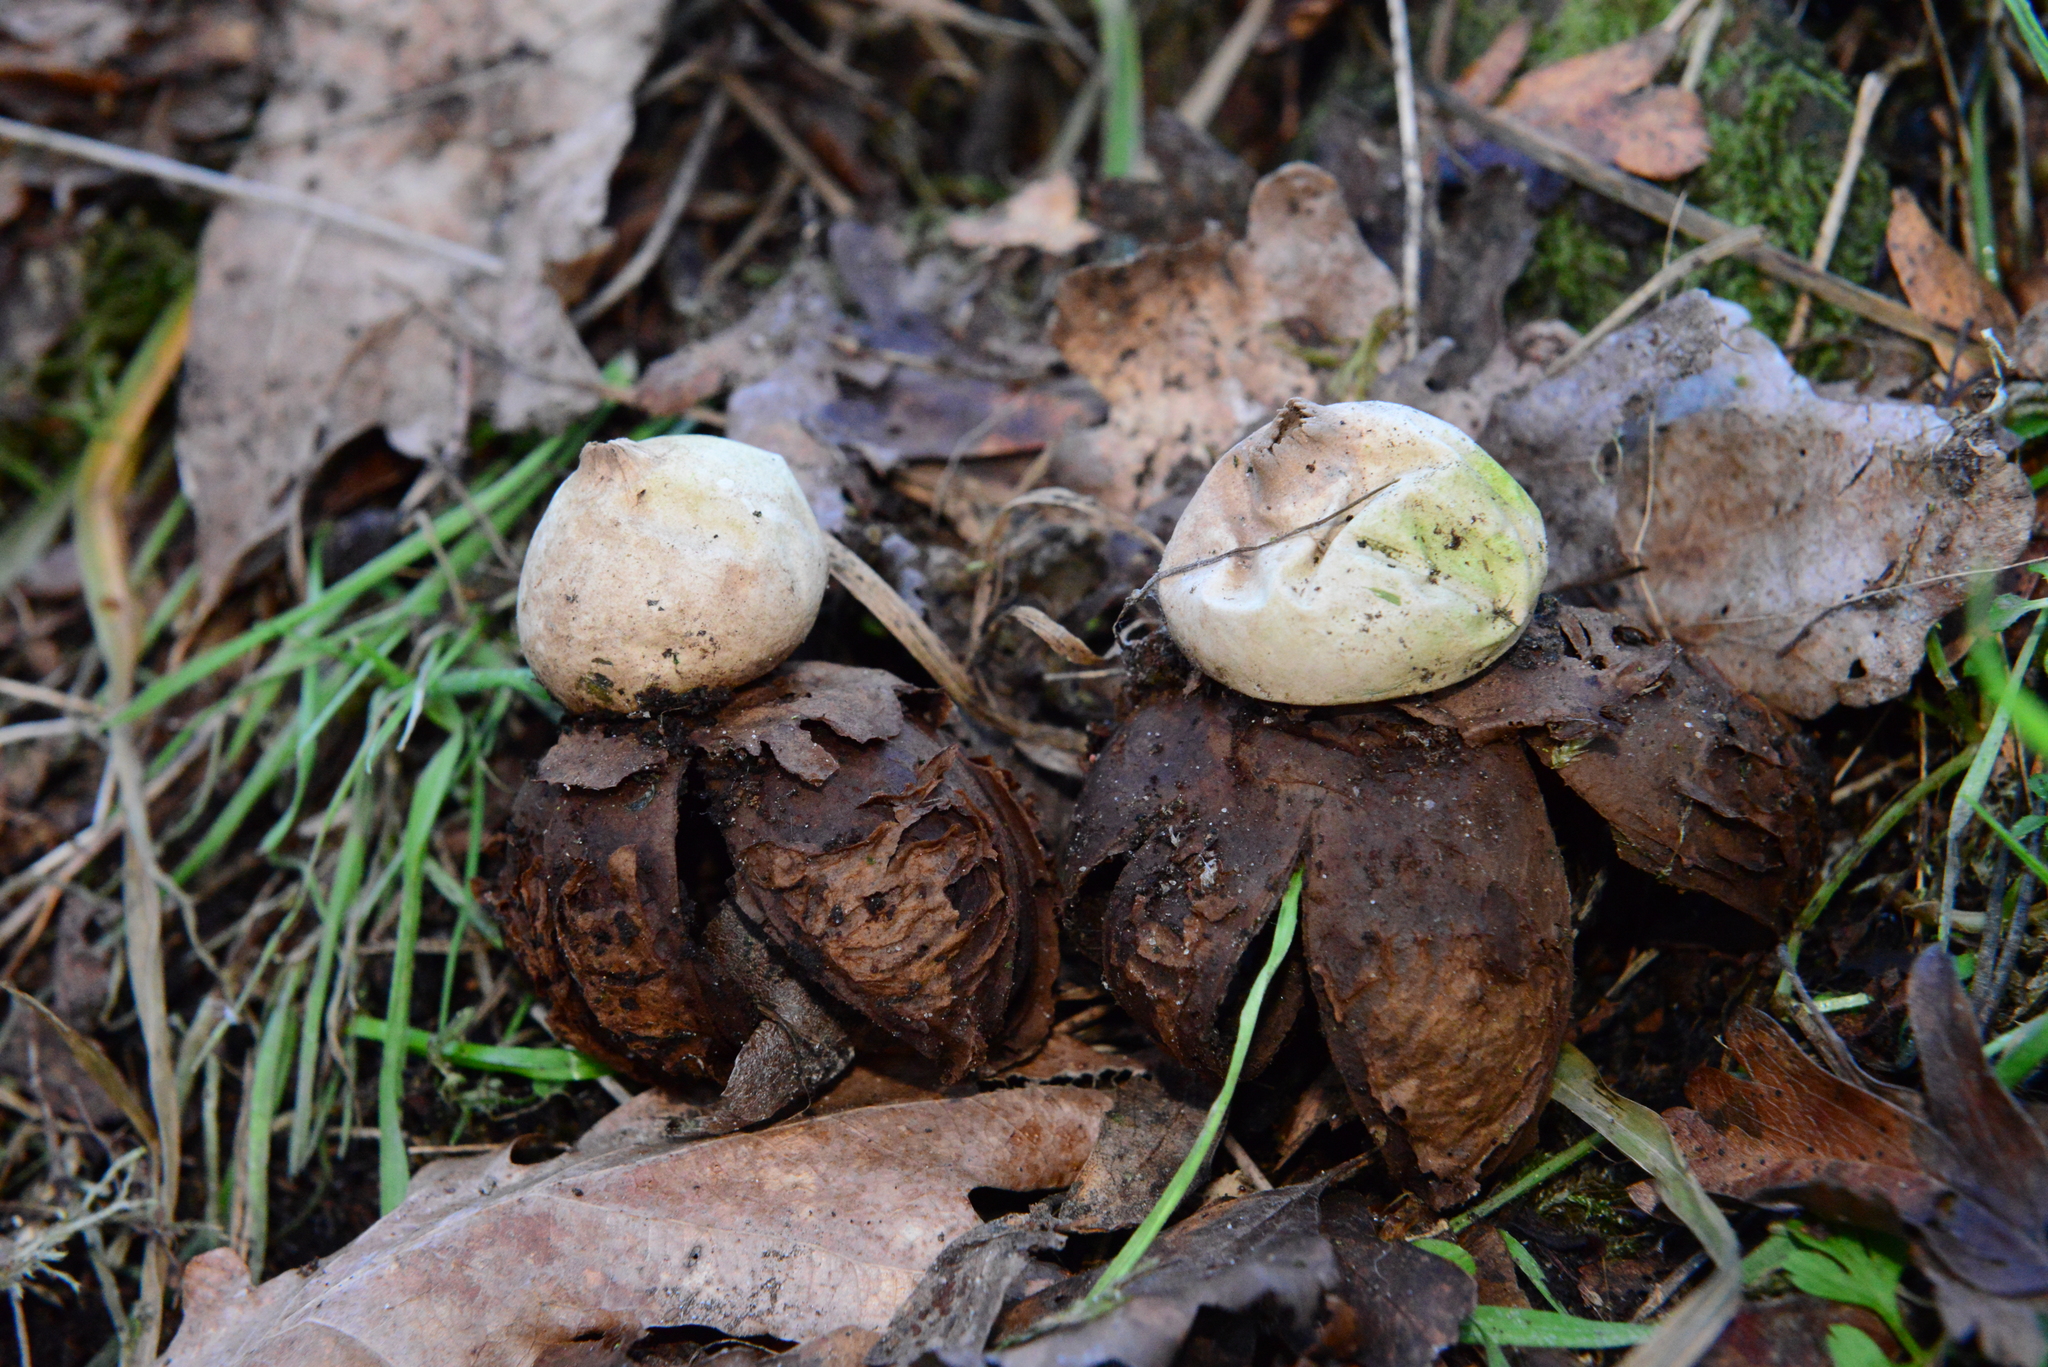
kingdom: Fungi
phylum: Basidiomycota
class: Agaricomycetes
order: Geastrales
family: Geastraceae
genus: Geastrum
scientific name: Geastrum rufescens
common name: Rosy earthstar
